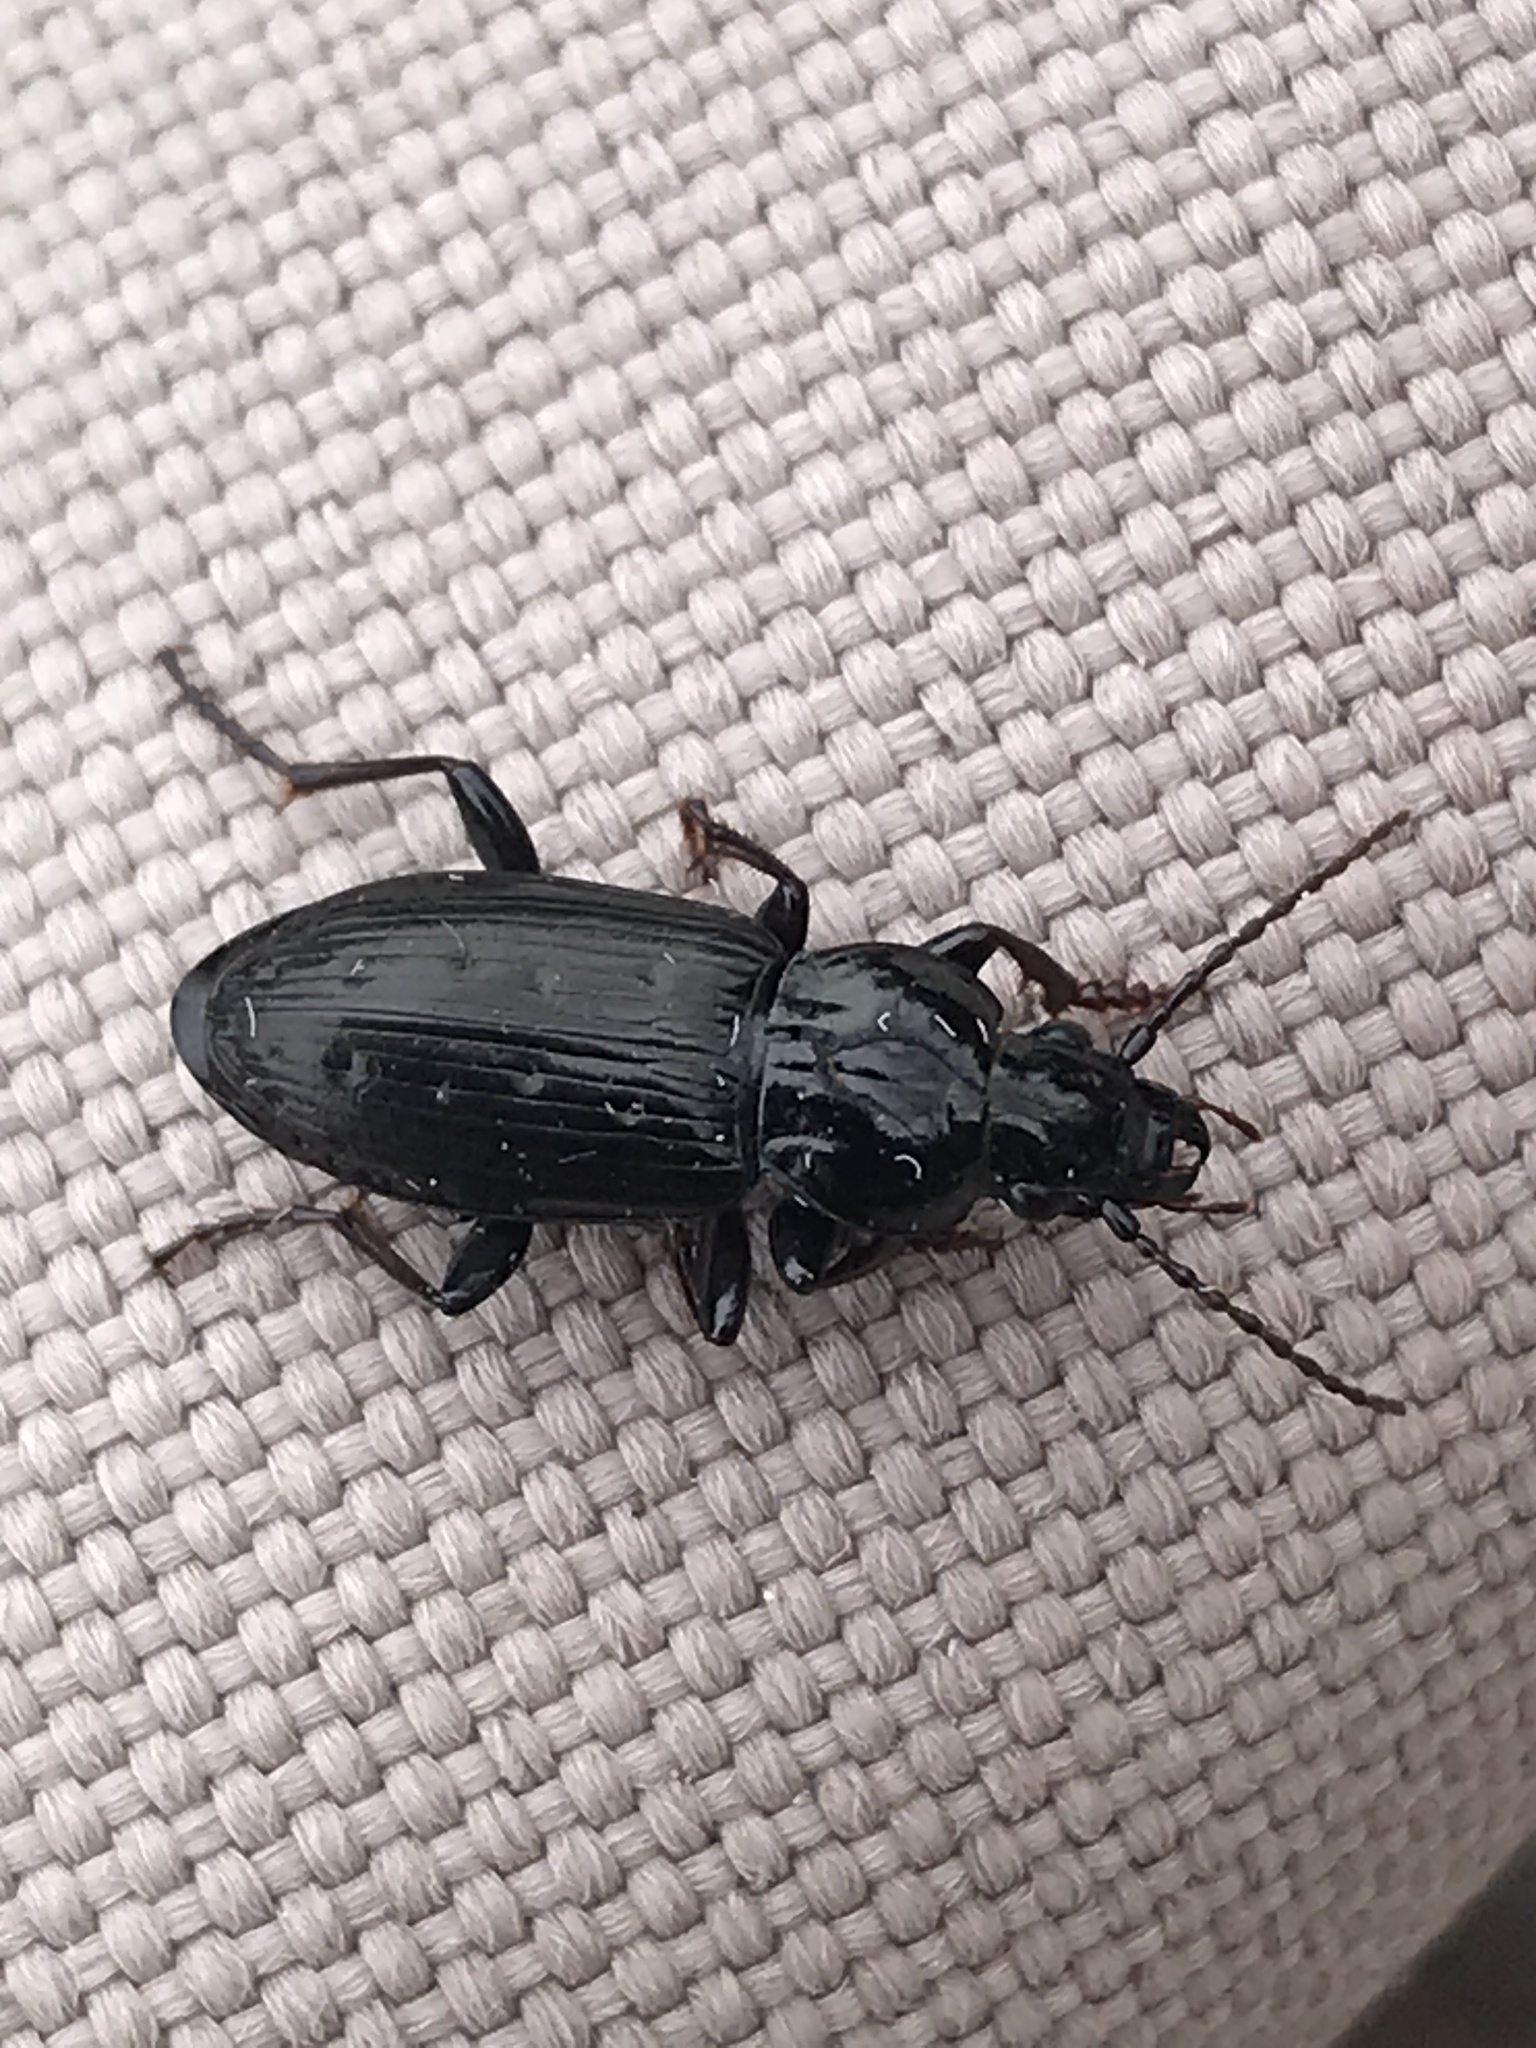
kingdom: Animalia
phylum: Arthropoda
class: Insecta
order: Coleoptera
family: Carabidae
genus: Pterostichus
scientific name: Pterostichus adstrictus
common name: Upland blackclock
